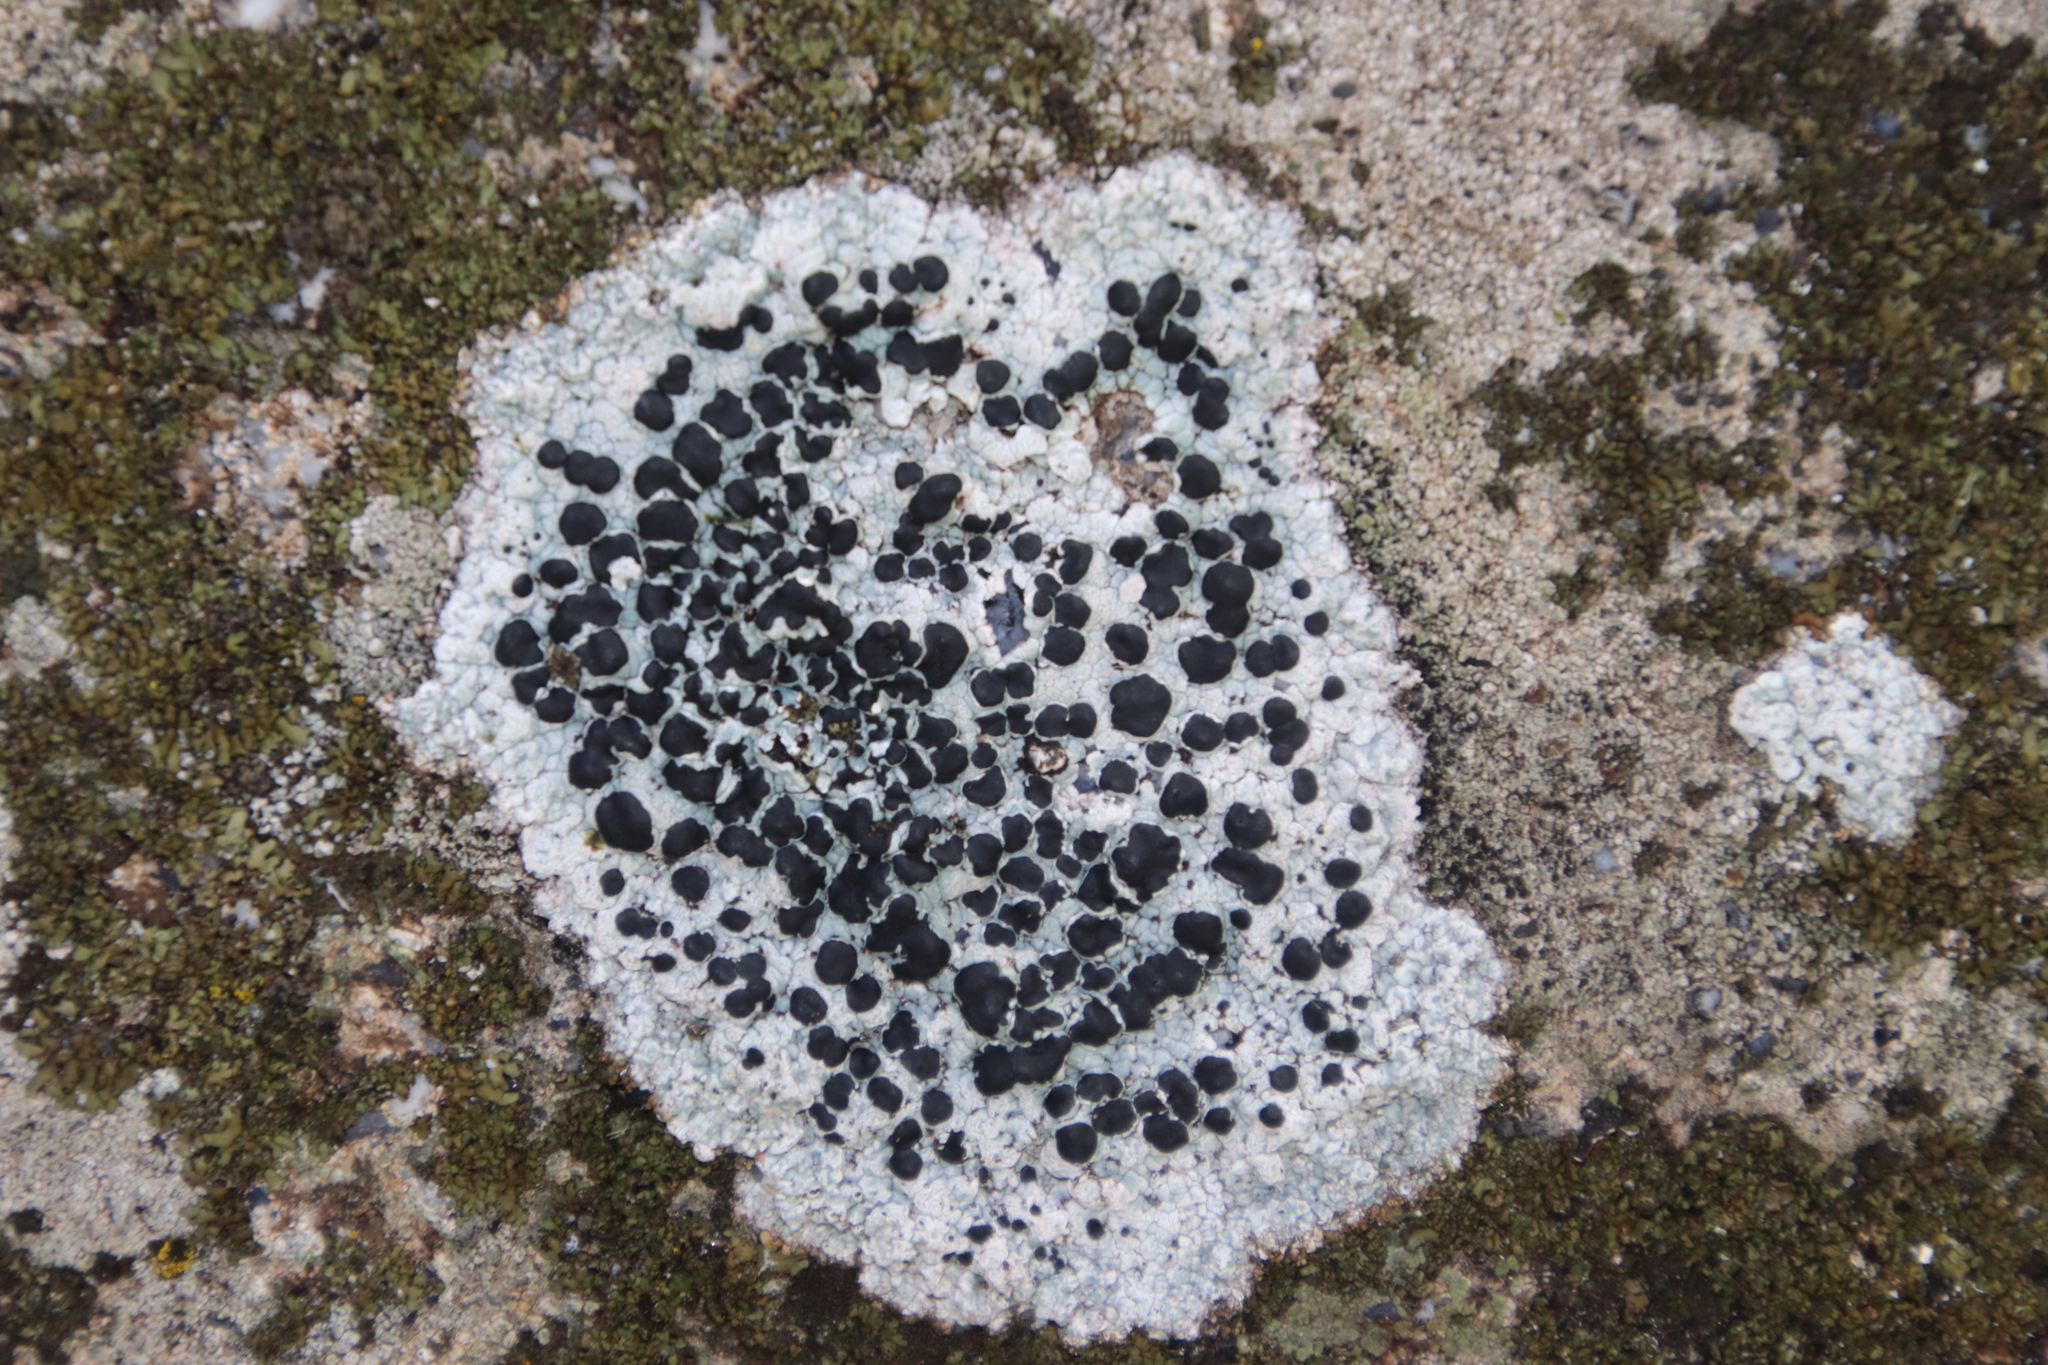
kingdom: Fungi
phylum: Ascomycota
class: Lecanoromycetes
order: Lecanorales
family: Tephromelataceae
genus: Tephromela
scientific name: Tephromela atra
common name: Black shields
